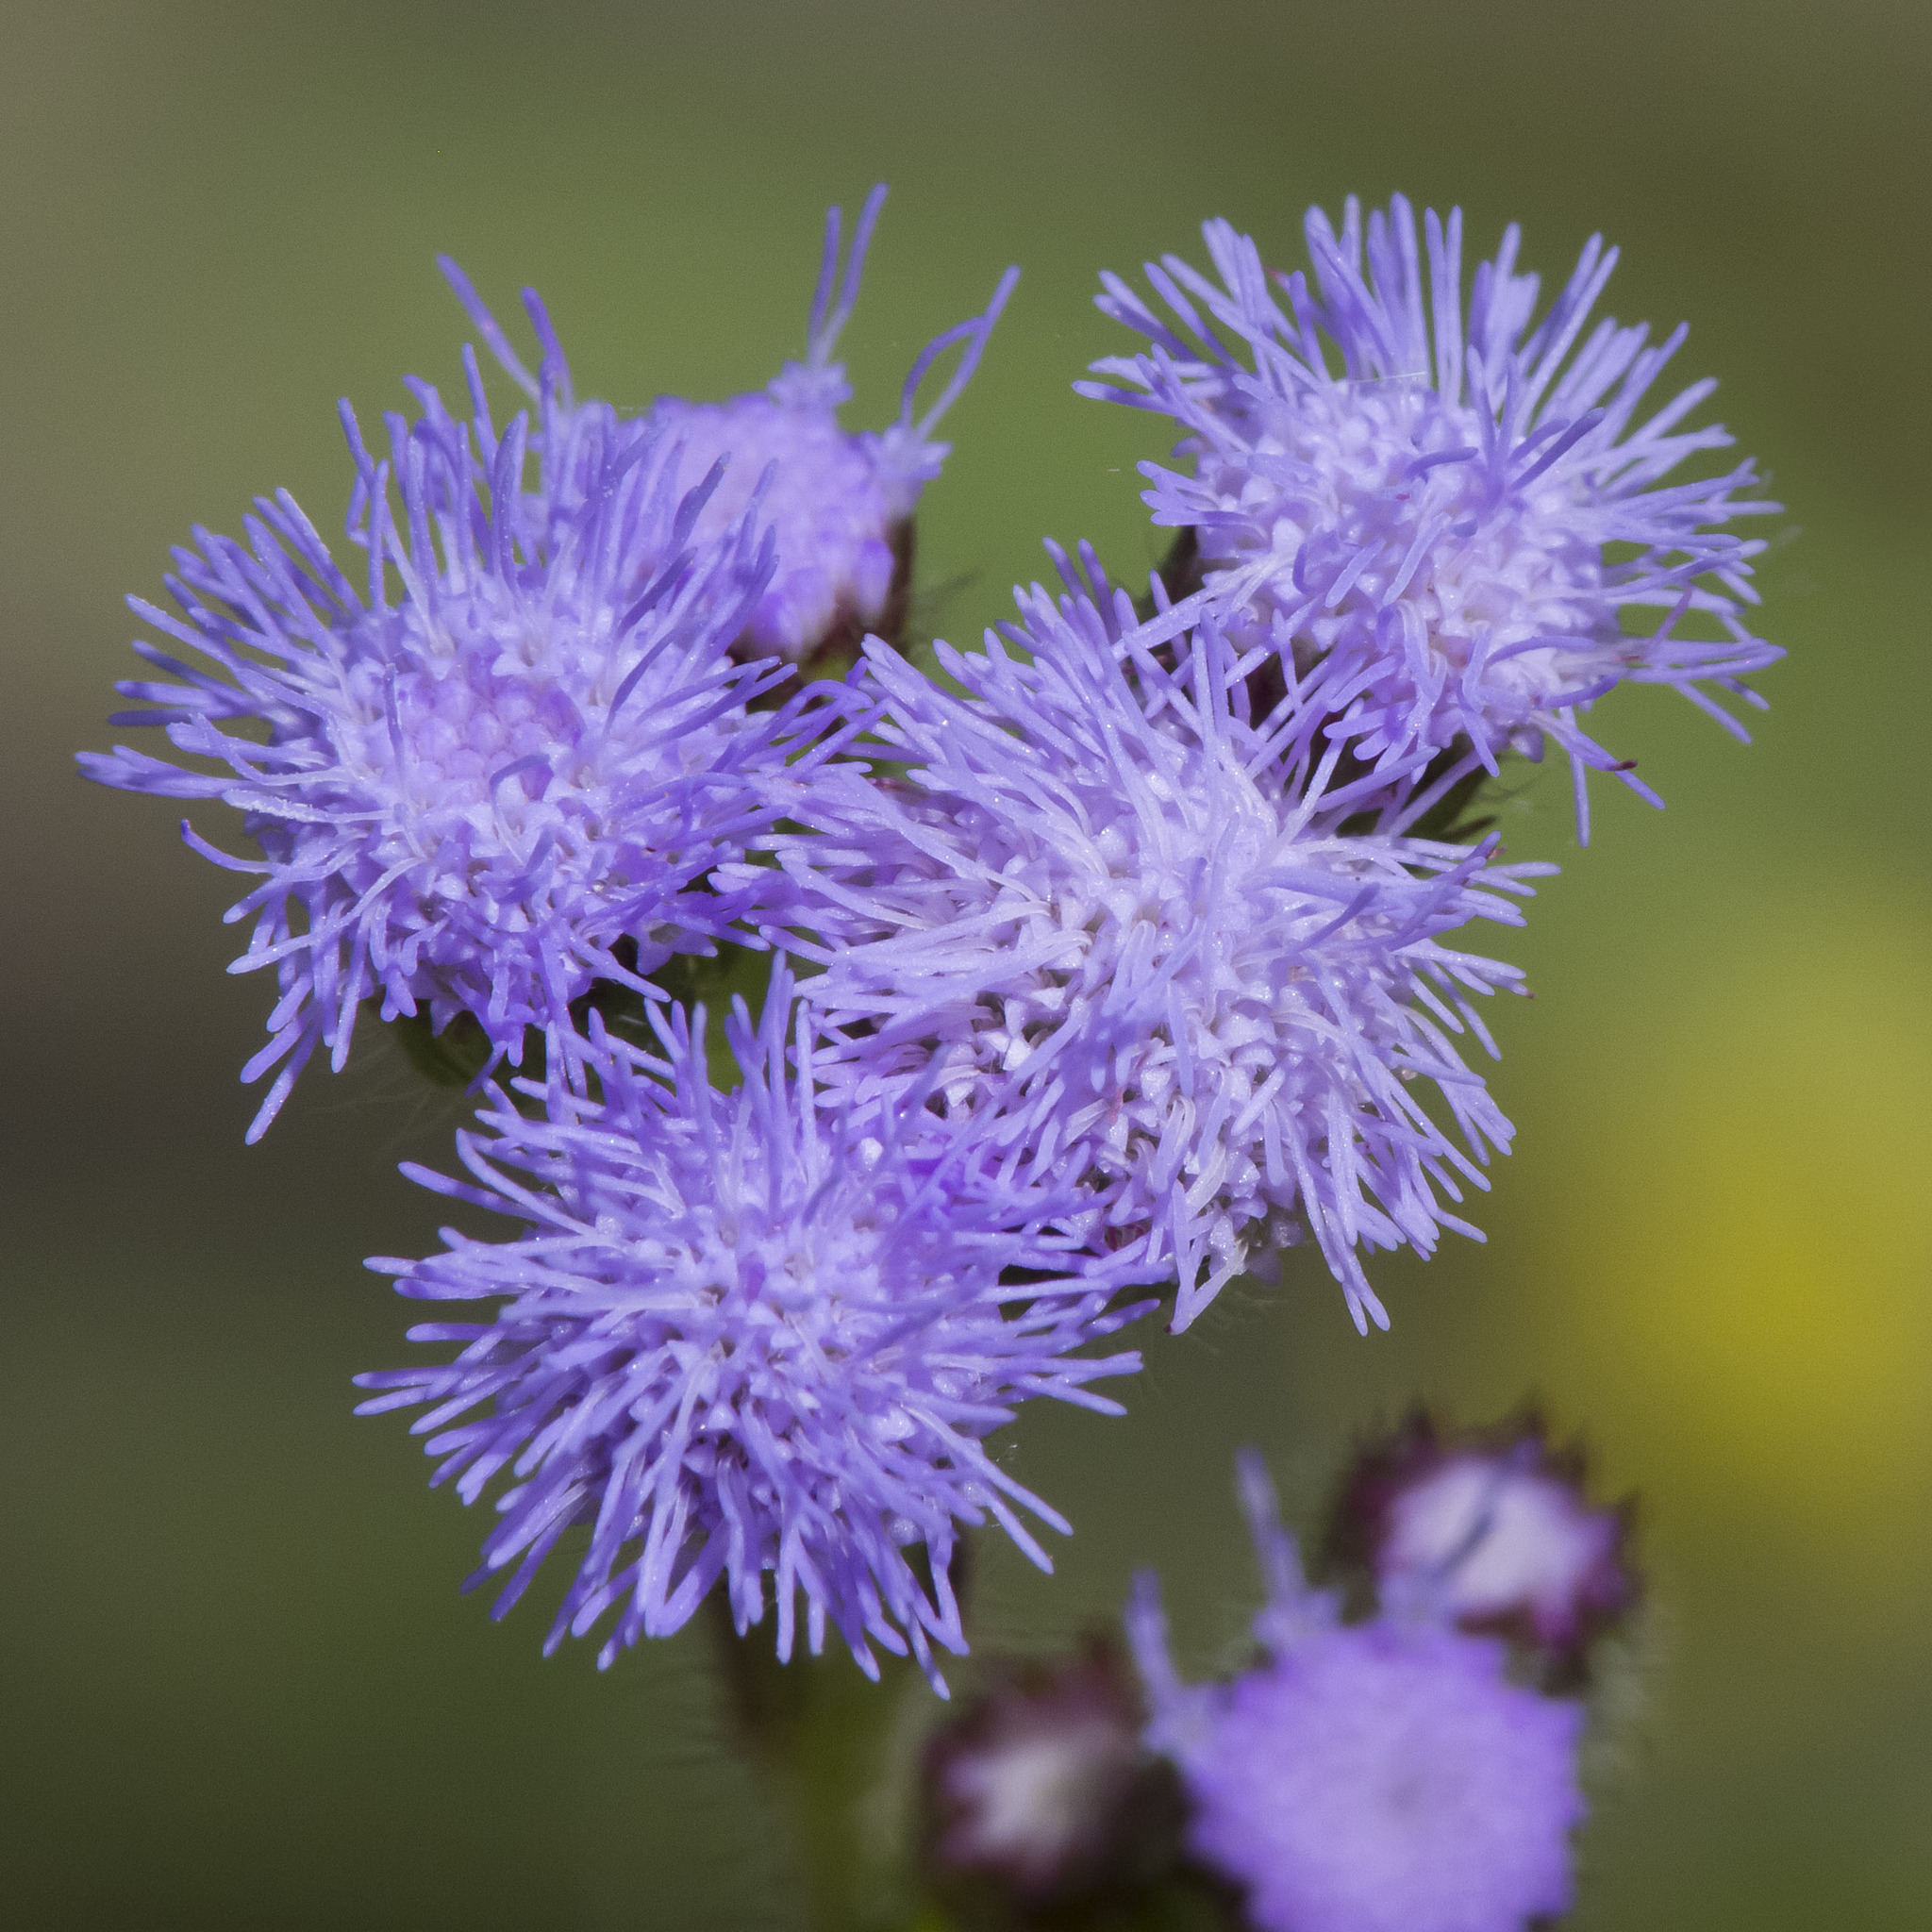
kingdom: Plantae
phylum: Tracheophyta
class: Magnoliopsida
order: Asterales
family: Asteraceae
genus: Ageratum
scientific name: Ageratum conyzoides
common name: Tropical whiteweed
